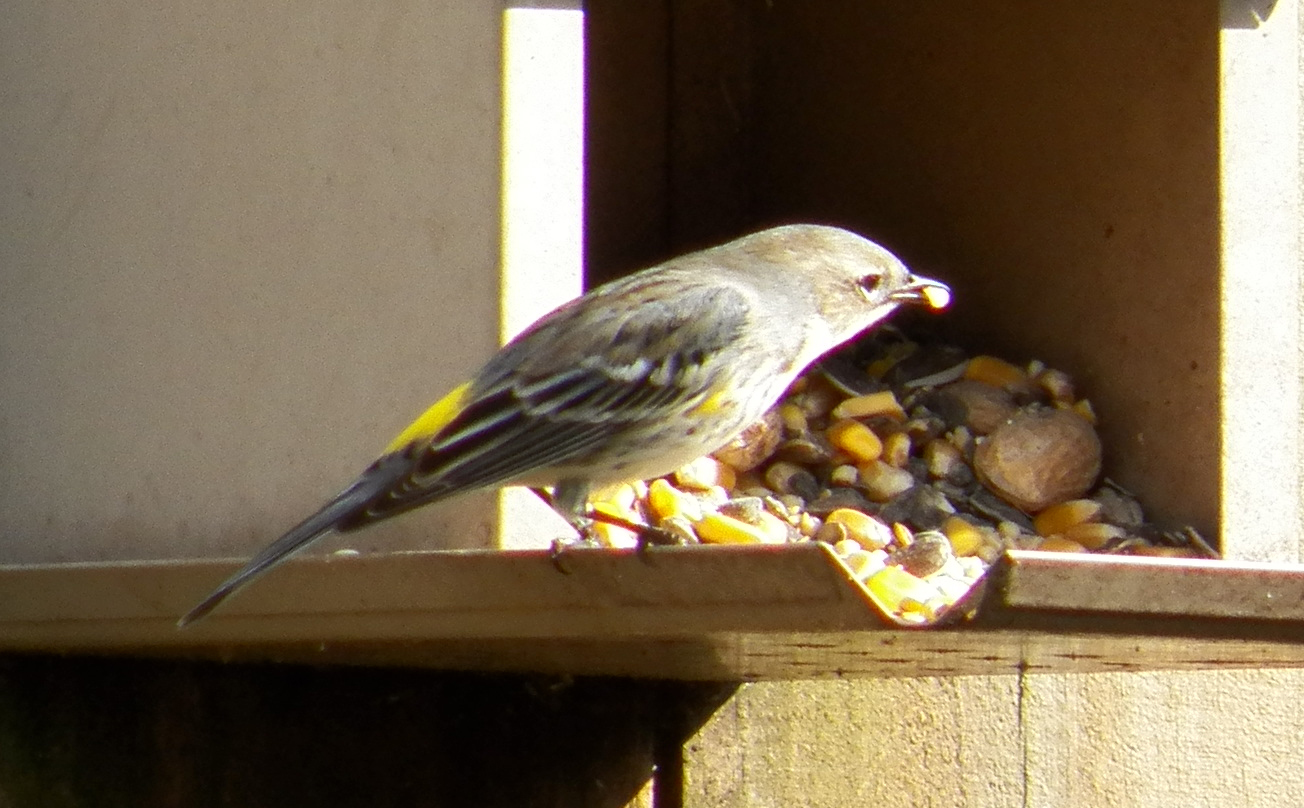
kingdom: Animalia
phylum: Chordata
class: Aves
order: Passeriformes
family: Parulidae
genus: Setophaga
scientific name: Setophaga coronata
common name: Myrtle warbler
